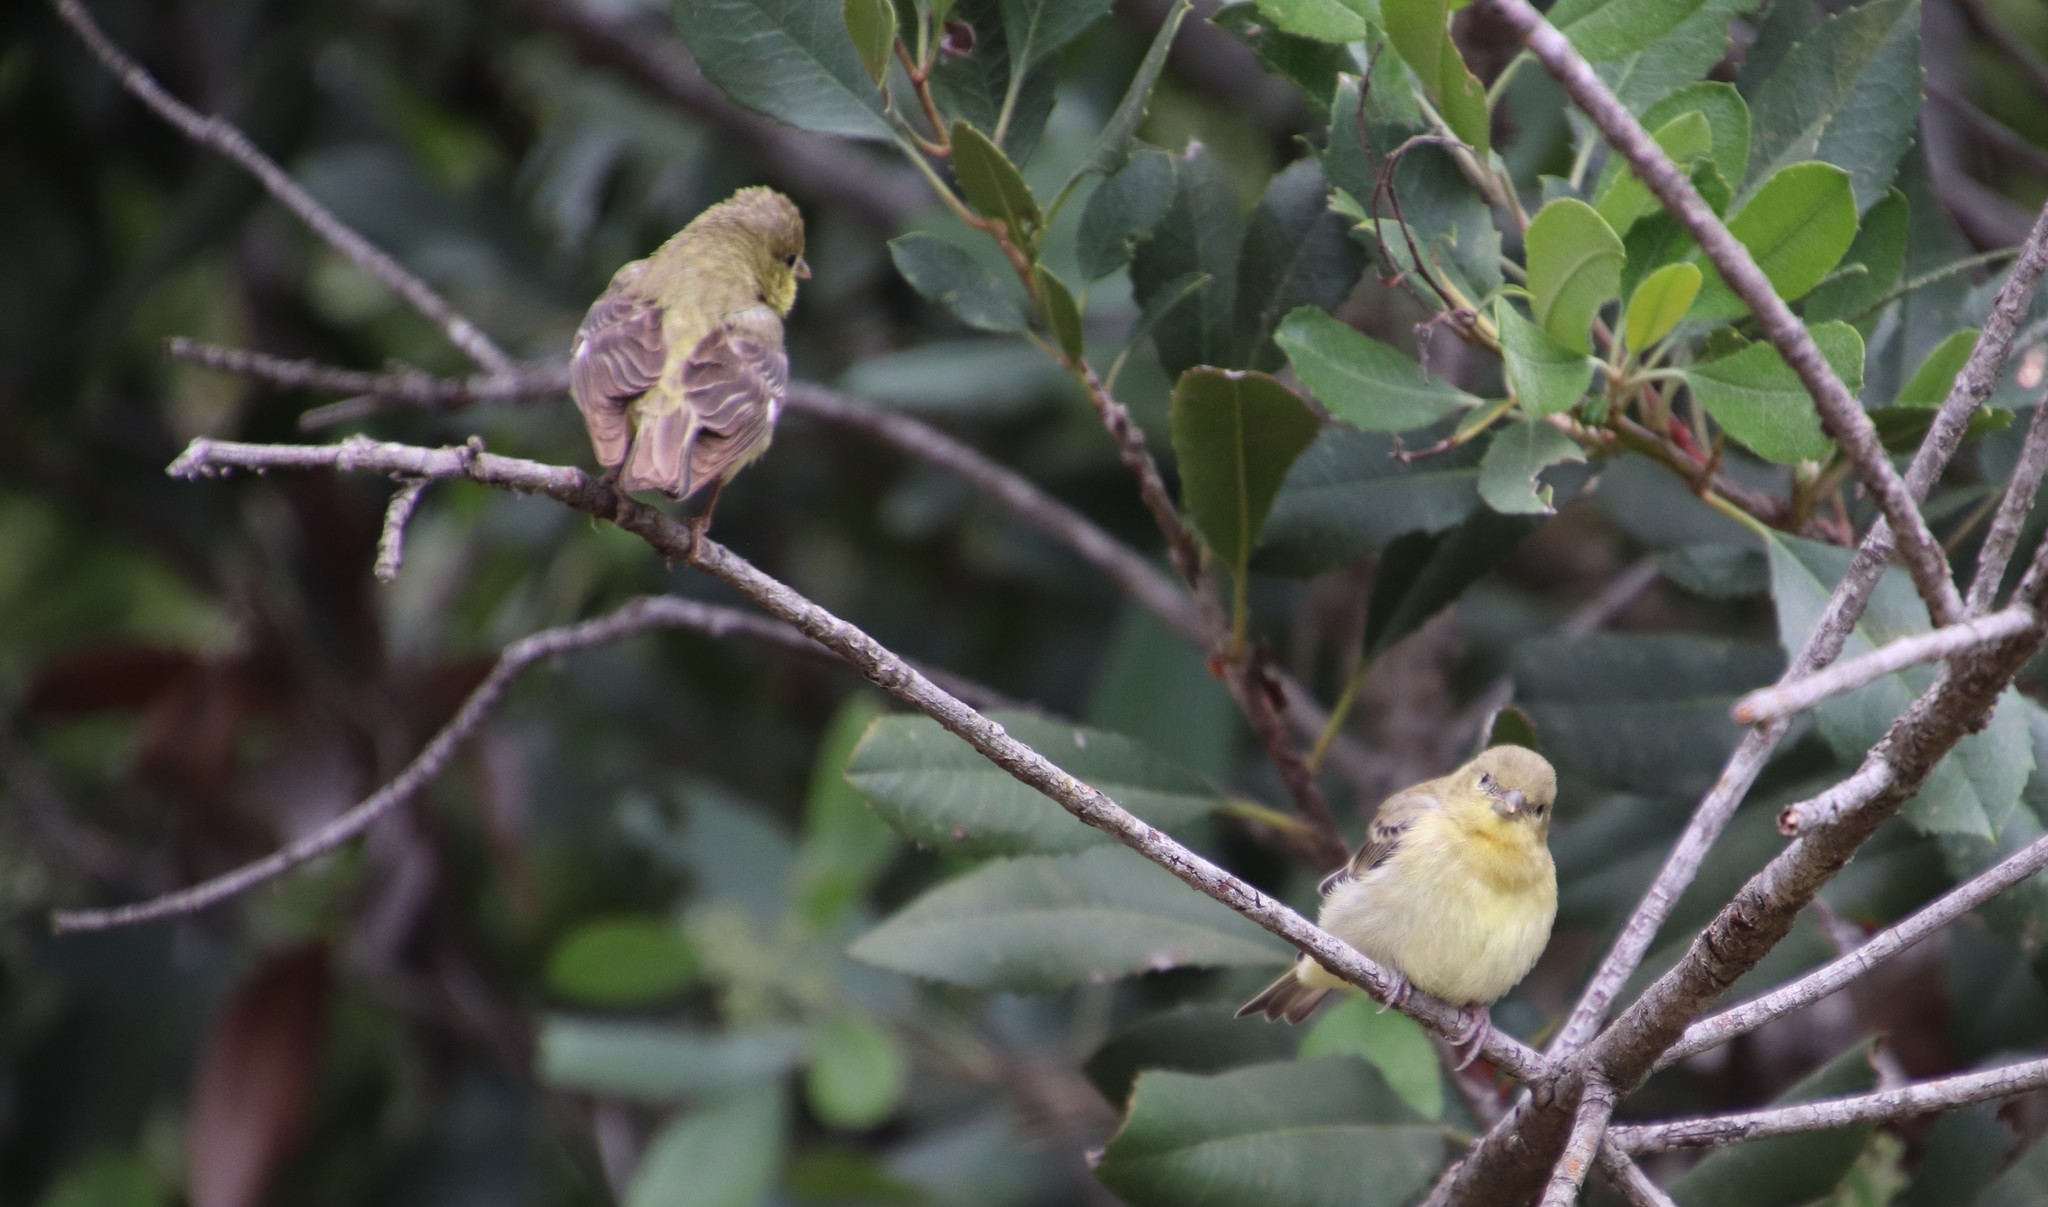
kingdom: Animalia
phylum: Chordata
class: Aves
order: Passeriformes
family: Fringillidae
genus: Spinus
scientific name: Spinus psaltria
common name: Lesser goldfinch
